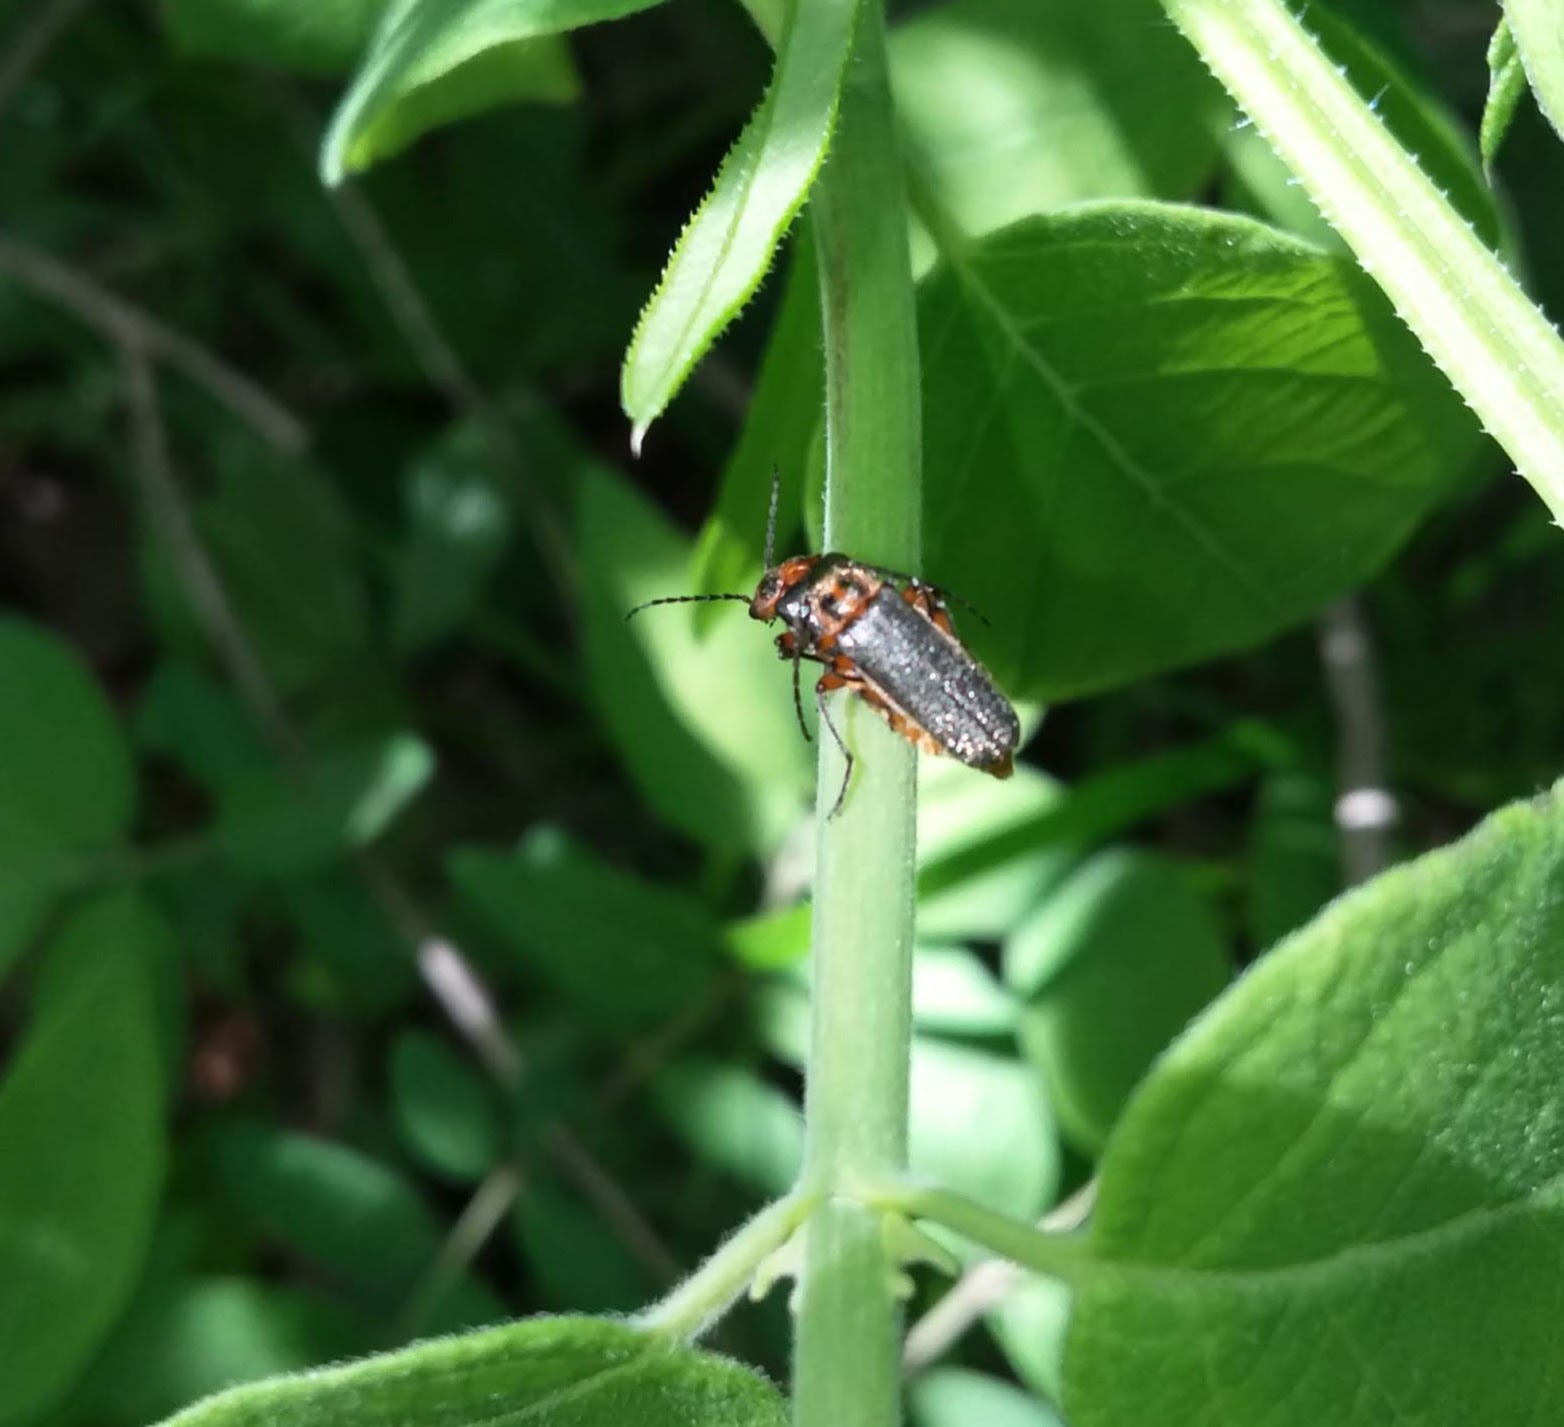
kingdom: Animalia
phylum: Arthropoda
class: Insecta
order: Coleoptera
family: Cantharidae
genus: Atalantycha
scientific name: Atalantycha bilineata
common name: Two-lined leatherwing
